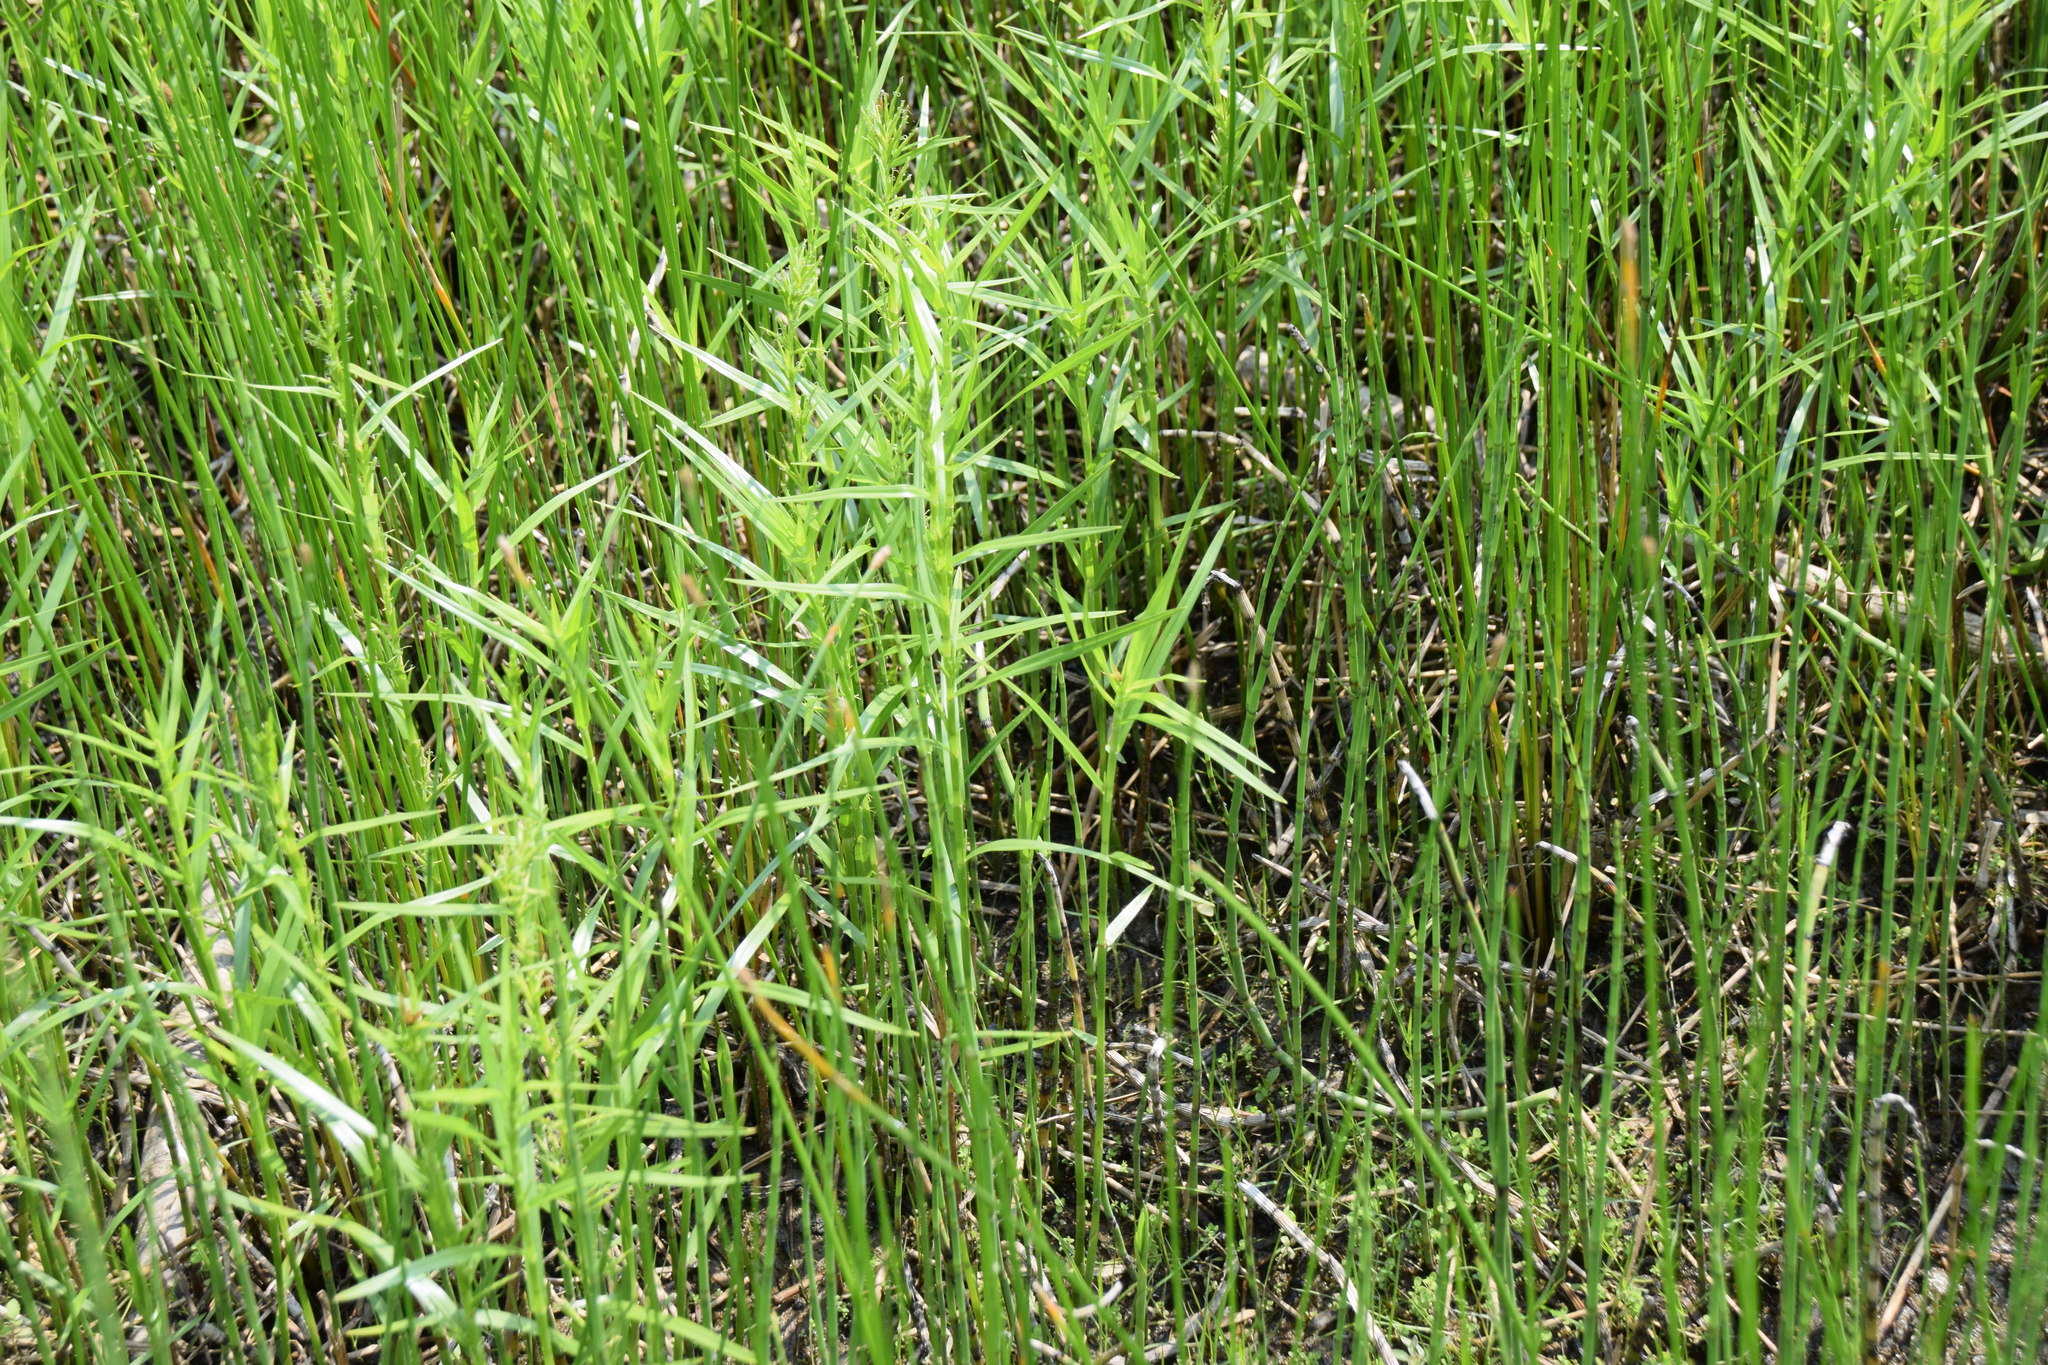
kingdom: Plantae
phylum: Tracheophyta
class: Liliopsida
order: Poales
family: Cyperaceae
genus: Dulichium
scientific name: Dulichium arundinaceum
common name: Three-way sedge
